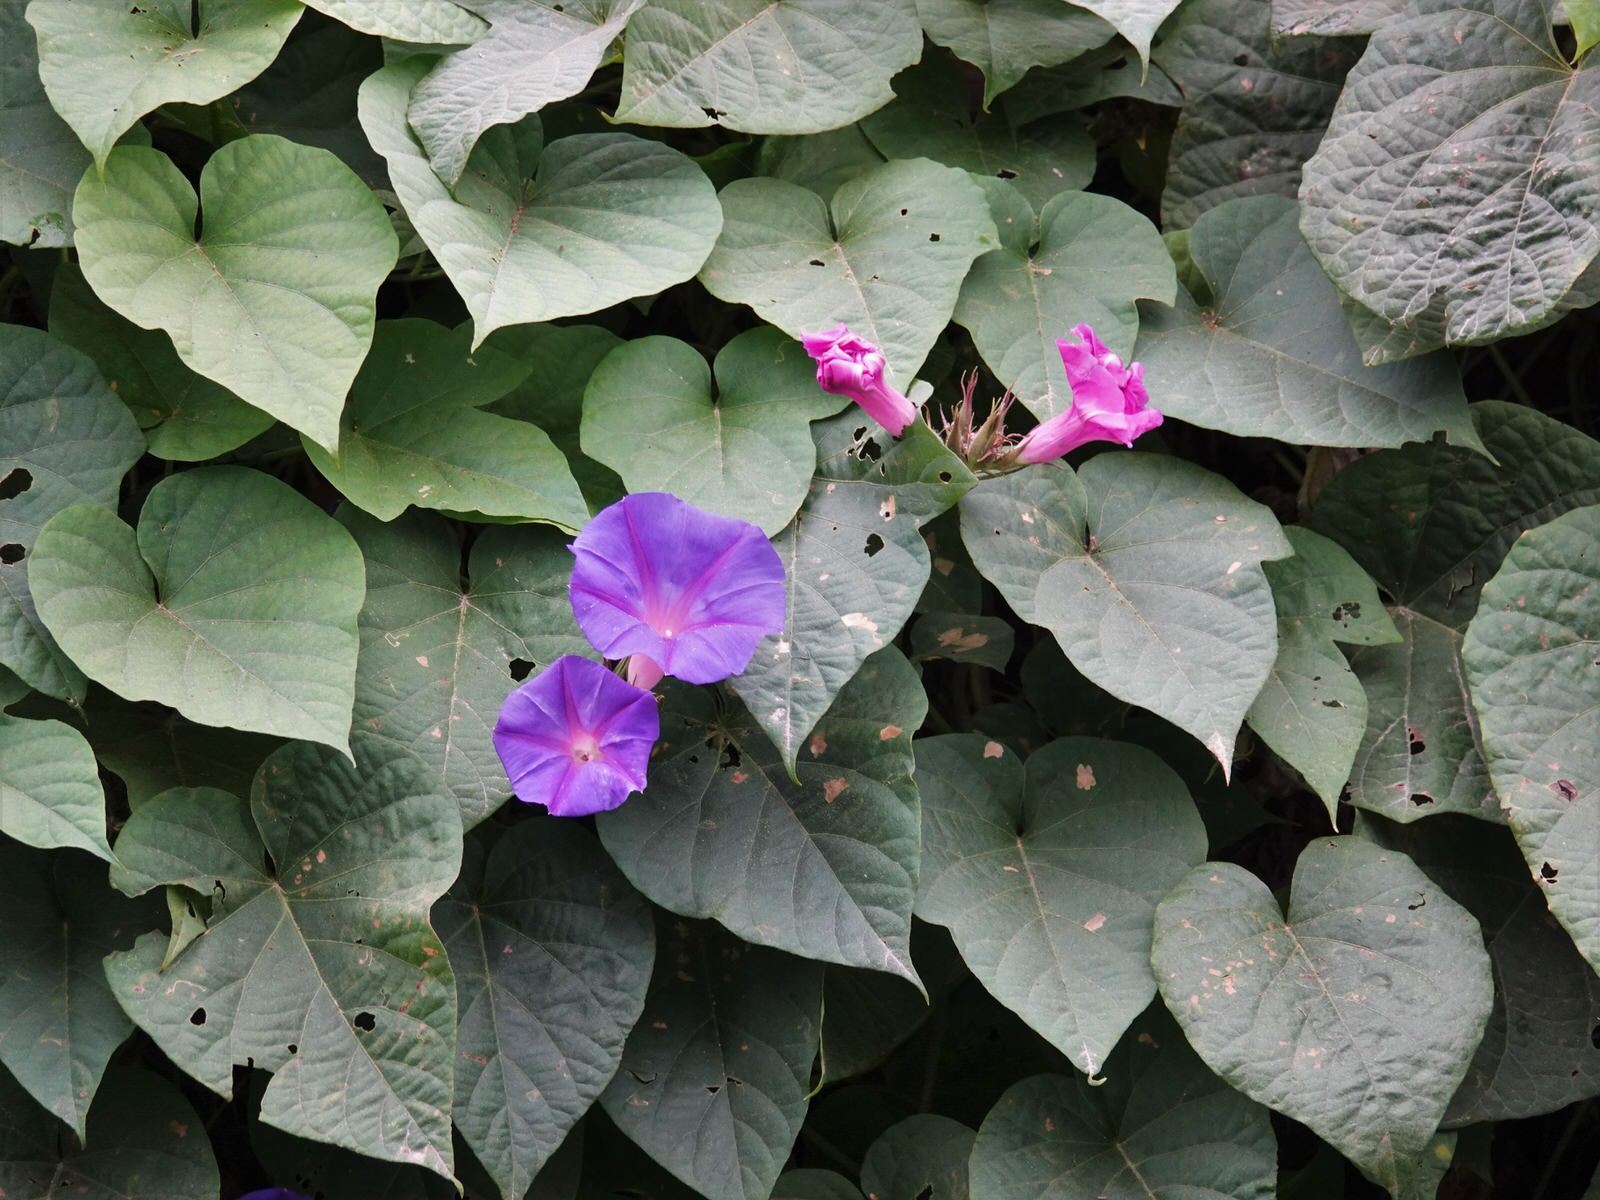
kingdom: Plantae
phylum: Tracheophyta
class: Magnoliopsida
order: Solanales
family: Convolvulaceae
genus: Ipomoea
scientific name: Ipomoea indica
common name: Blue dawnflower
